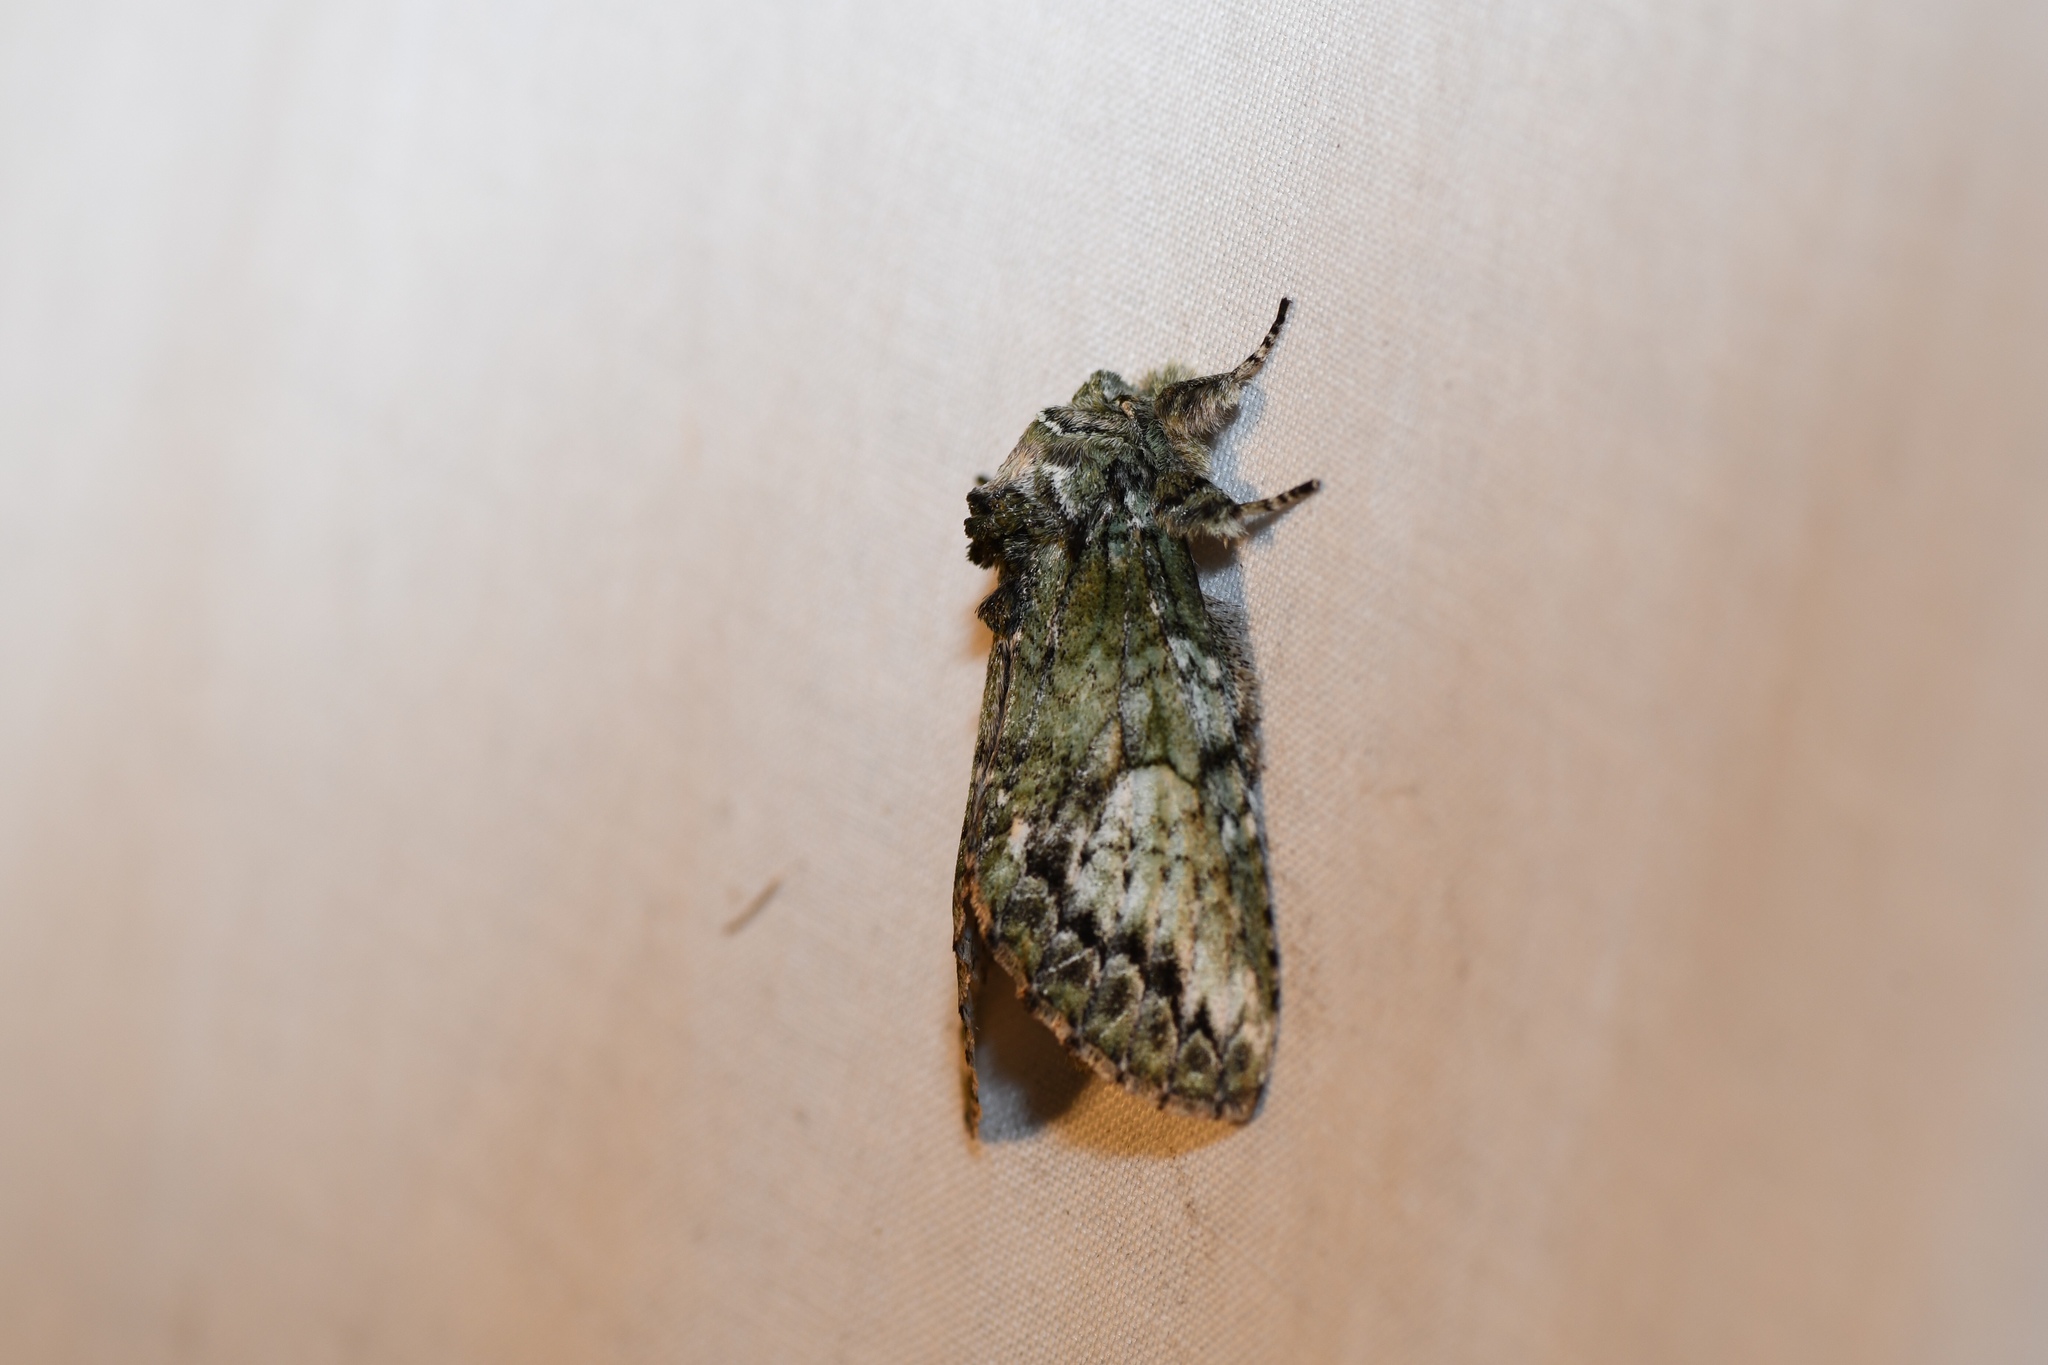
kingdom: Animalia
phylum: Arthropoda
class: Insecta
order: Lepidoptera
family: Notodontidae
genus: Heterocampa
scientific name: Heterocampa
